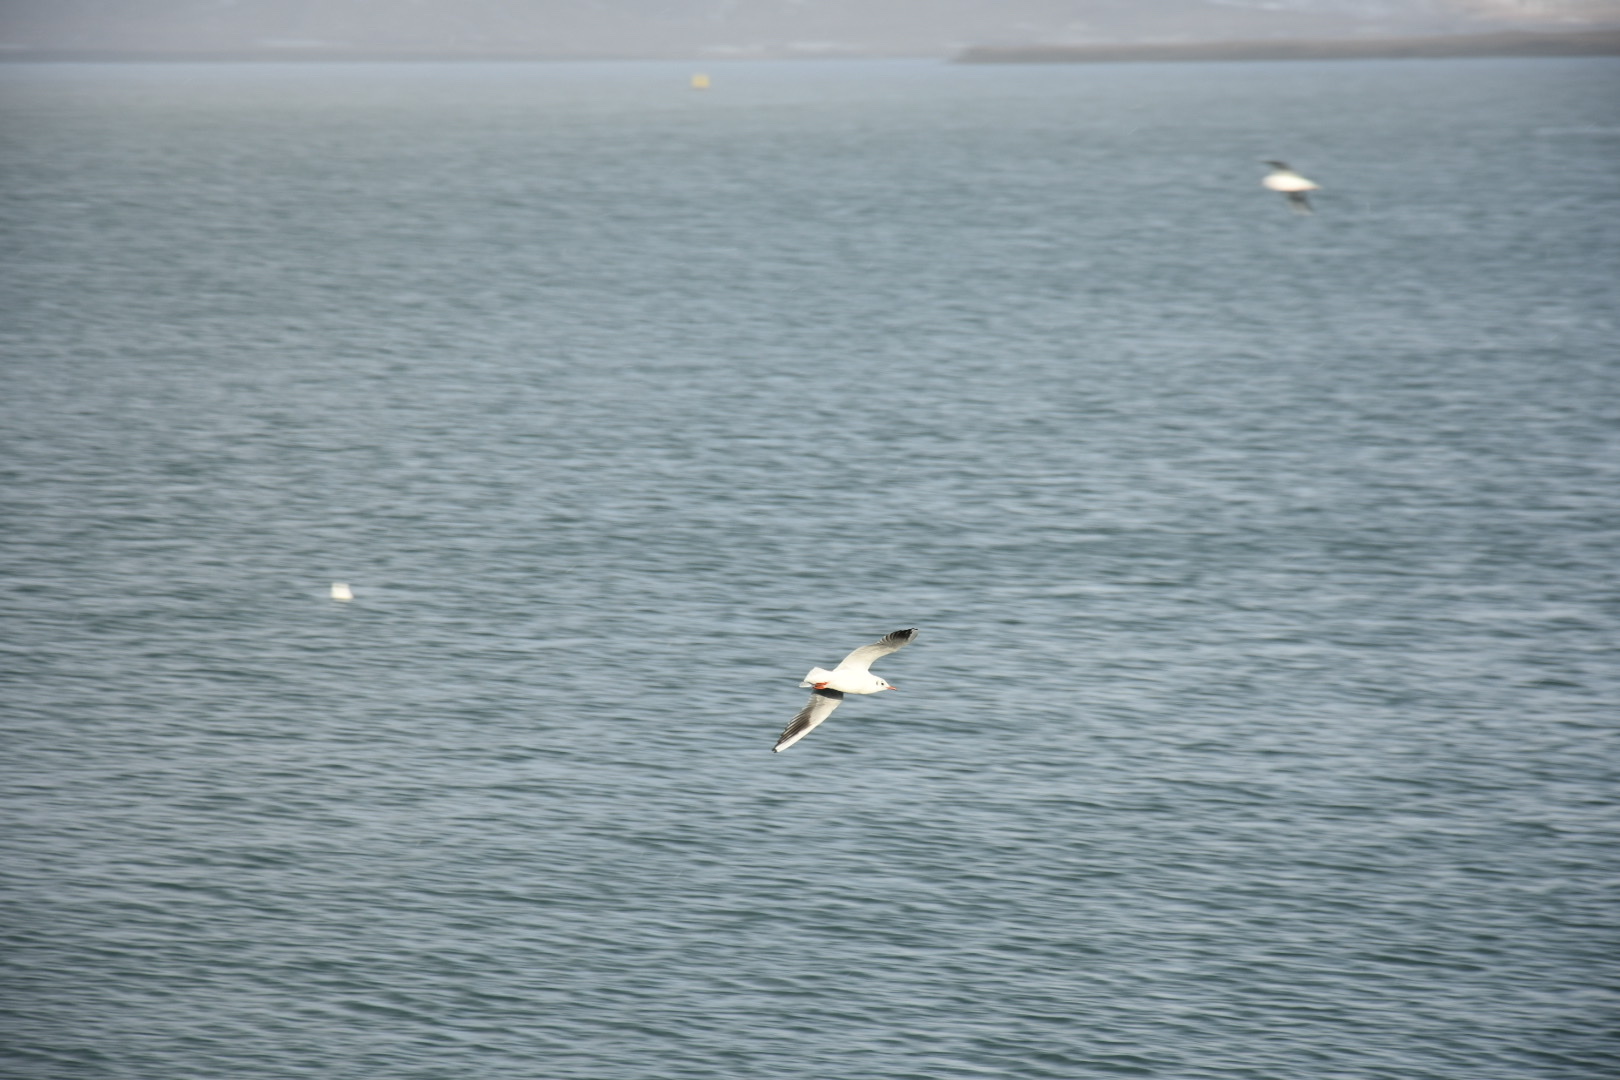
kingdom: Animalia
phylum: Chordata
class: Aves
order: Charadriiformes
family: Laridae
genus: Chroicocephalus
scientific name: Chroicocephalus ridibundus
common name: Black-headed gull
